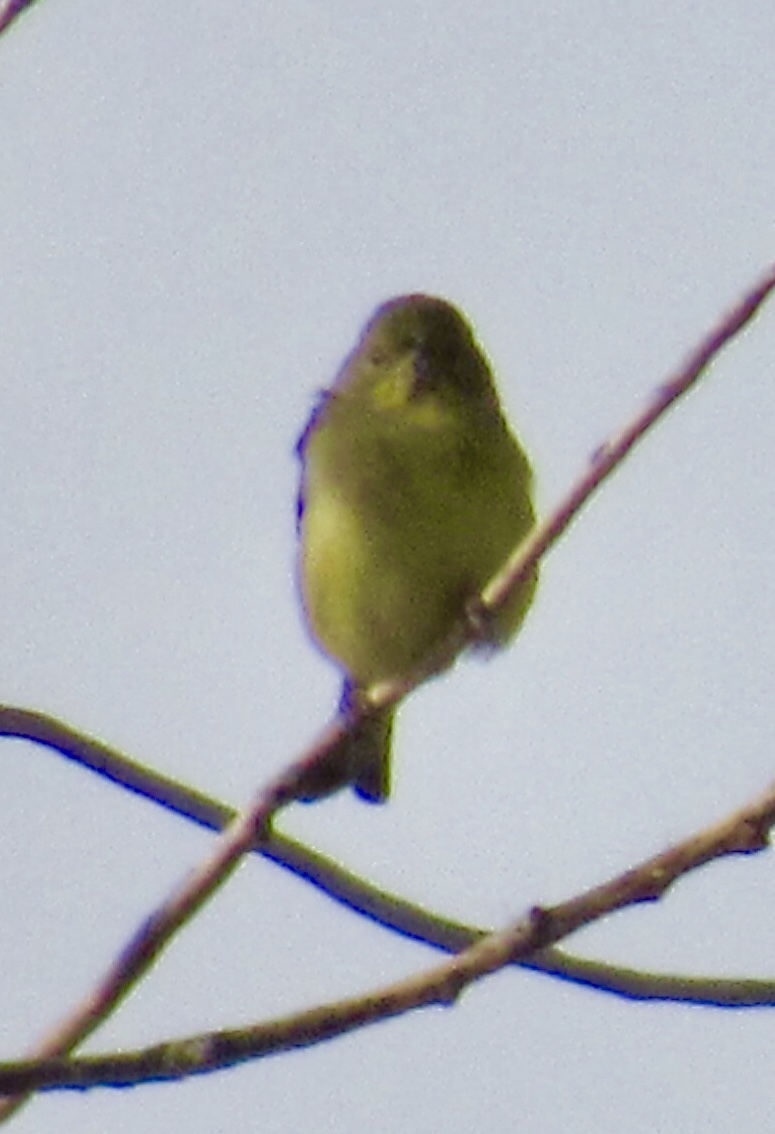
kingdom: Animalia
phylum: Chordata
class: Aves
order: Passeriformes
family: Fringillidae
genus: Spinus
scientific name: Spinus psaltria
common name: Lesser goldfinch
